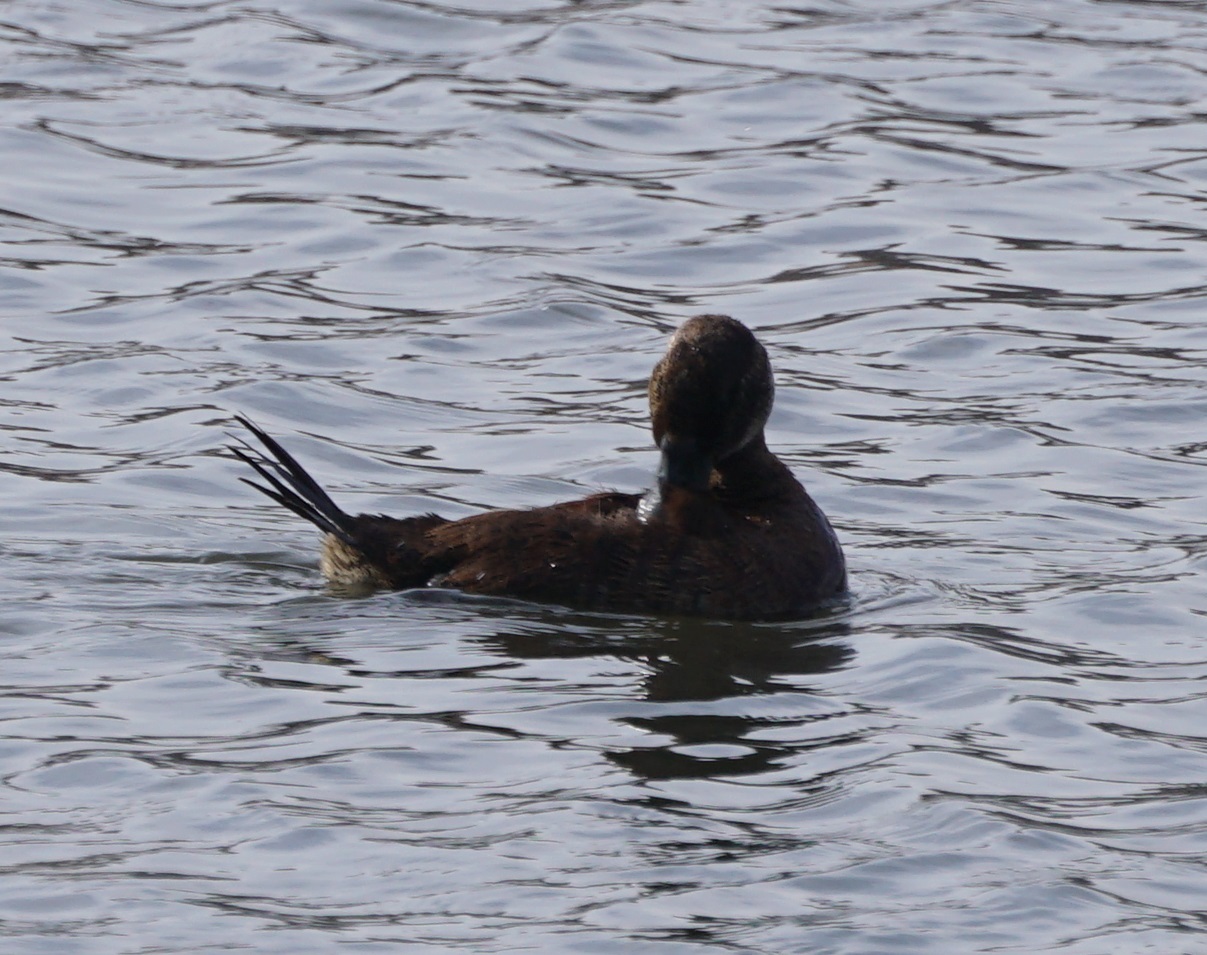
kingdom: Animalia
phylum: Chordata
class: Aves
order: Anseriformes
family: Anatidae
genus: Oxyura
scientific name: Oxyura ferruginea
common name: Andean duck
